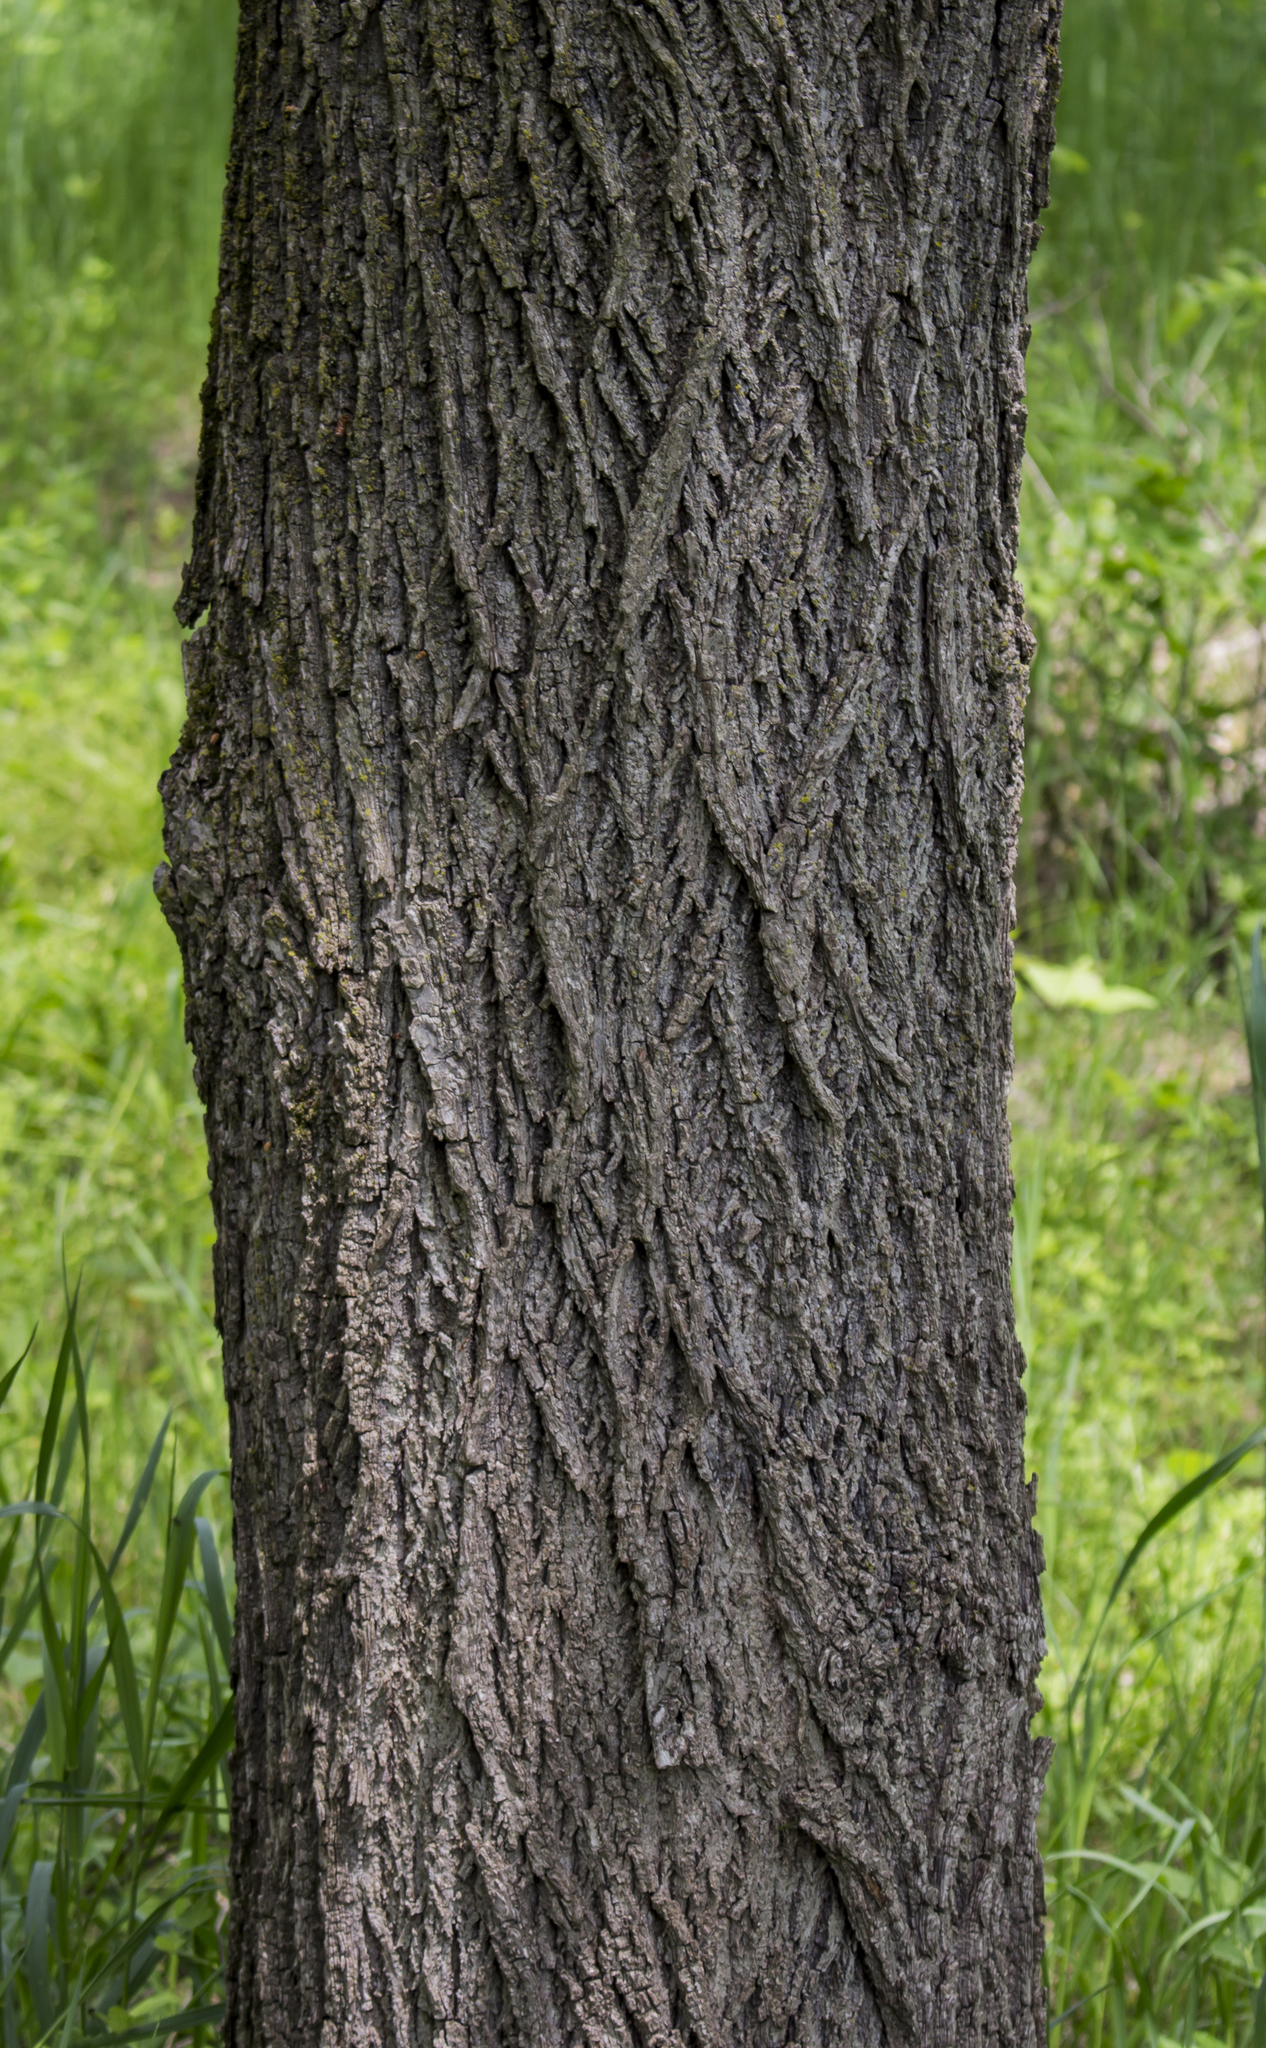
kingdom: Plantae
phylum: Tracheophyta
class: Magnoliopsida
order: Fagales
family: Juglandaceae
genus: Juglans
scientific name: Juglans nigra
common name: Black walnut
